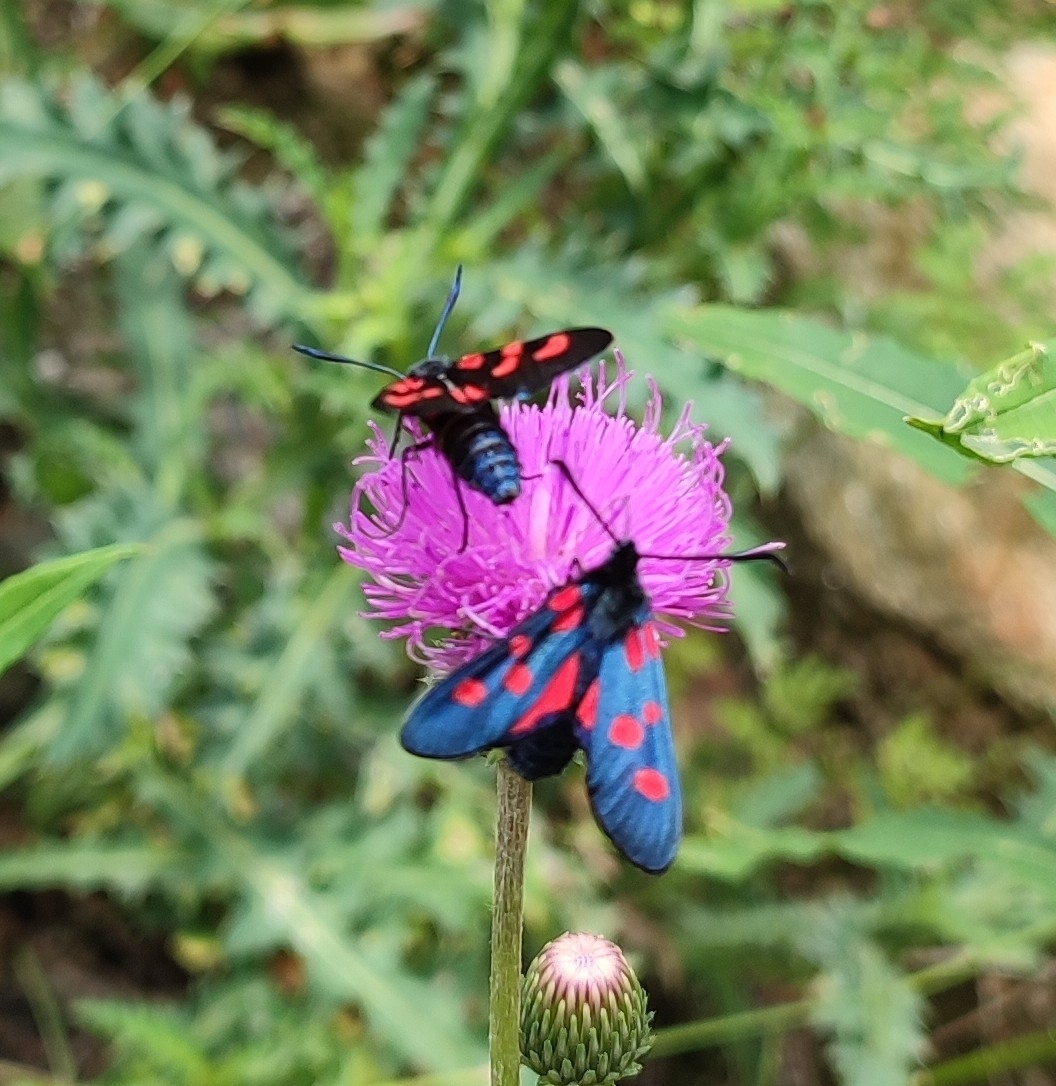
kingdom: Animalia
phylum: Arthropoda
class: Insecta
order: Lepidoptera
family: Zygaenidae
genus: Zygaena
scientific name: Zygaena lonicerae
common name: Narrow-bordered five-spot burnet
